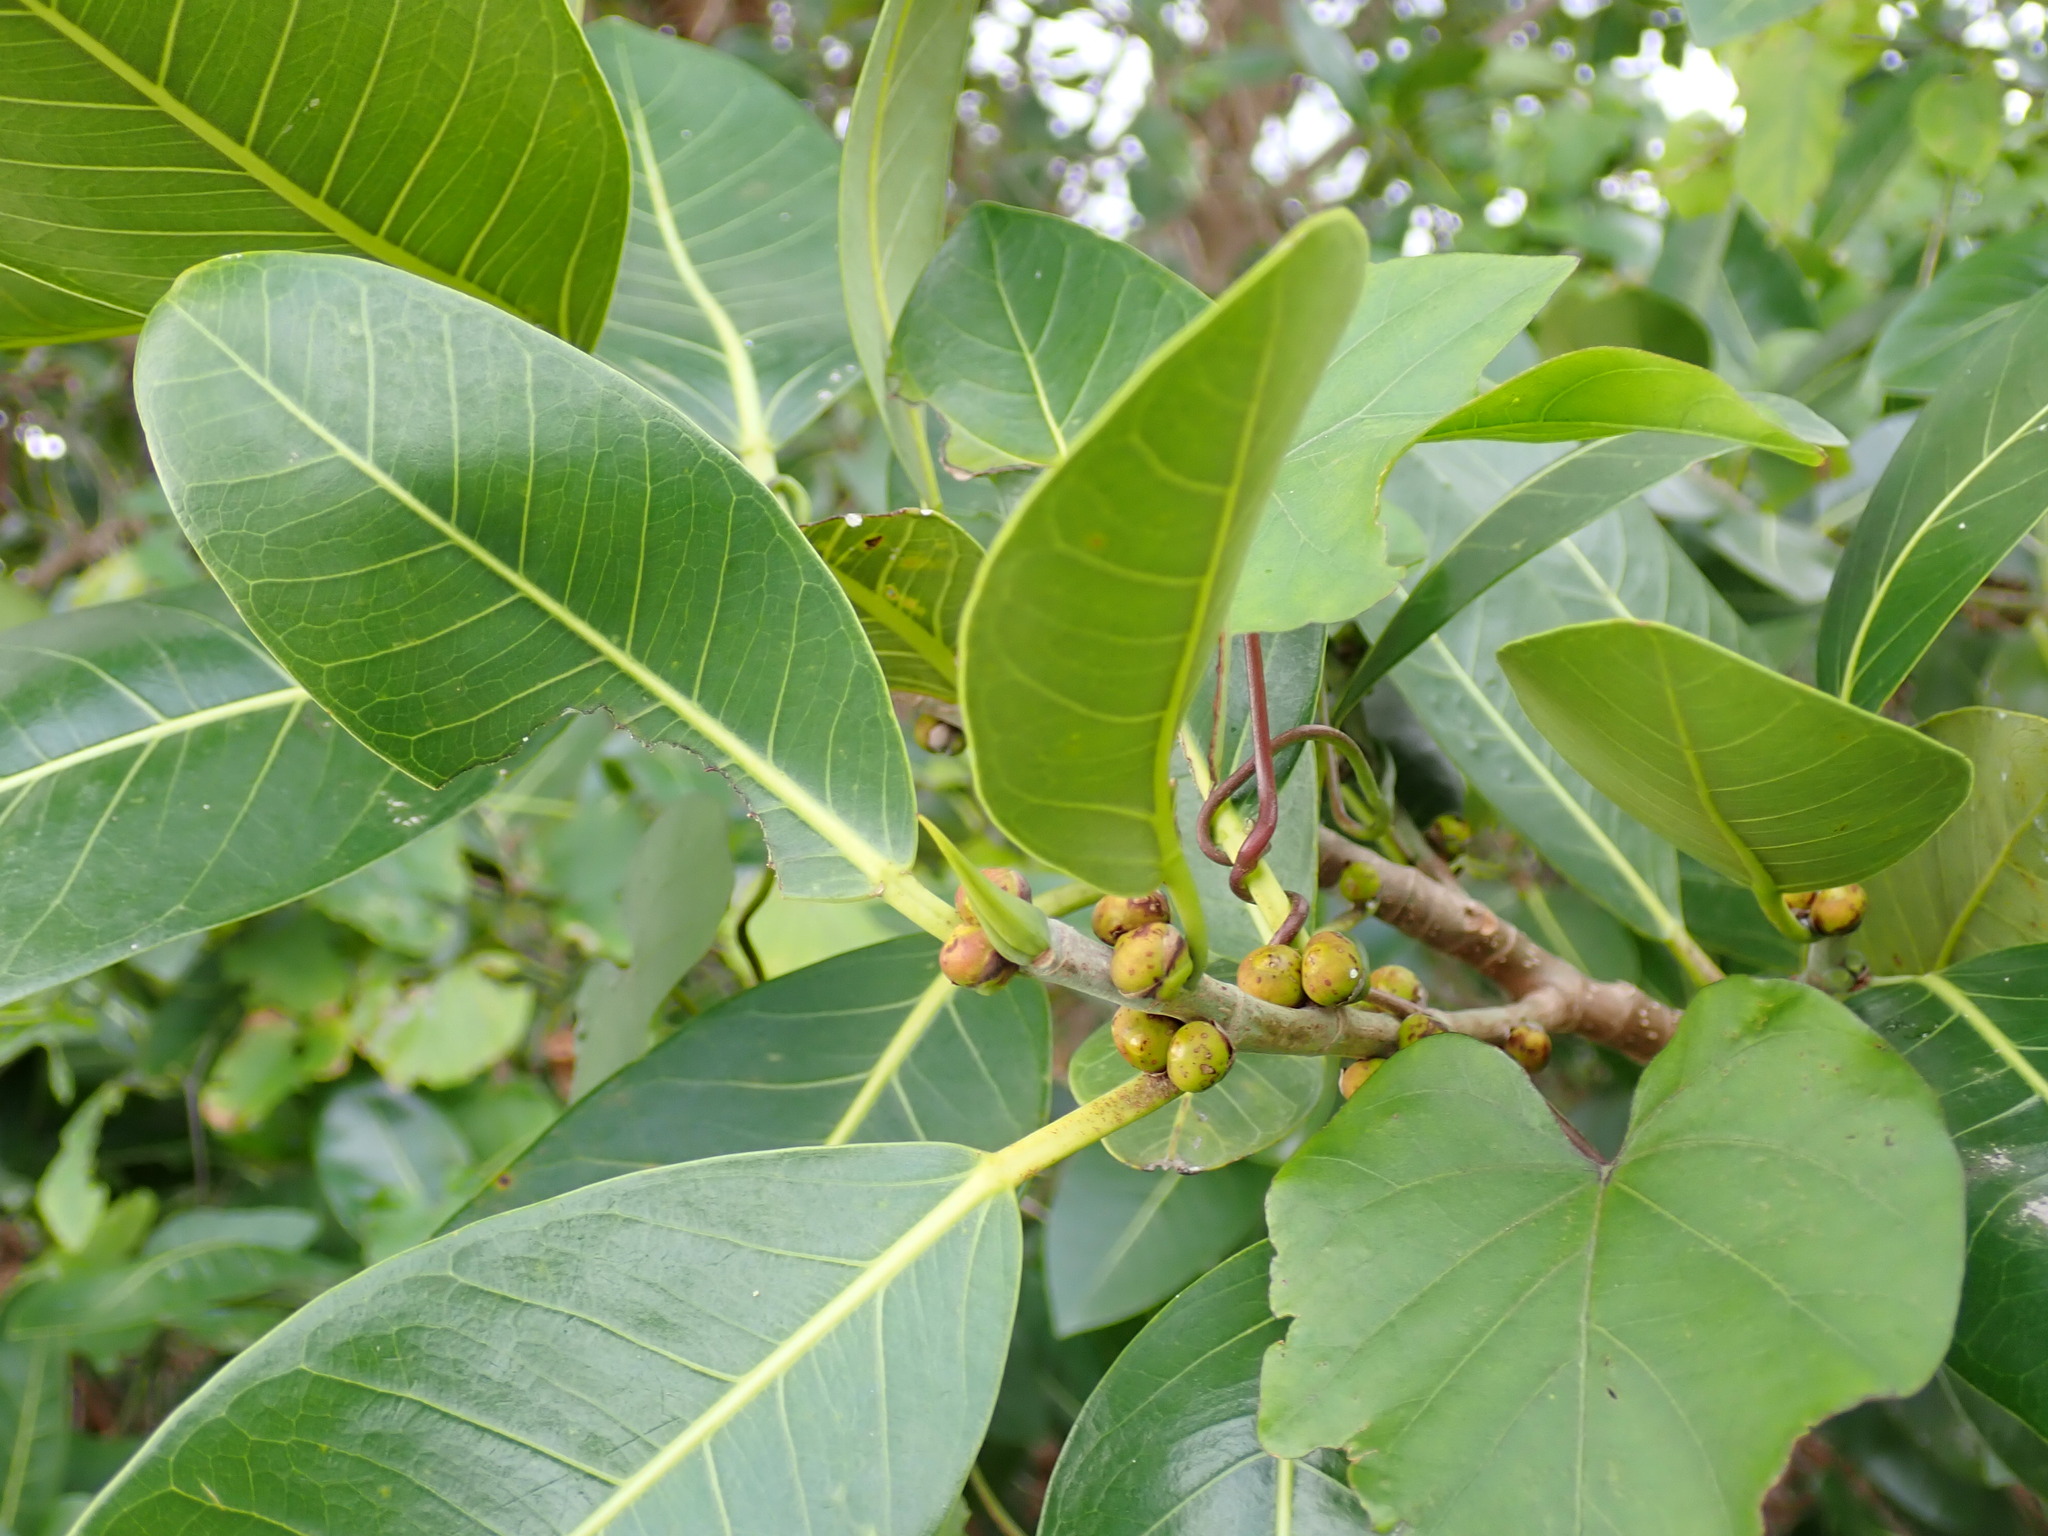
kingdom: Plantae
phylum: Tracheophyta
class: Magnoliopsida
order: Rosales
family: Moraceae
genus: Ficus
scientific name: Ficus aurea
